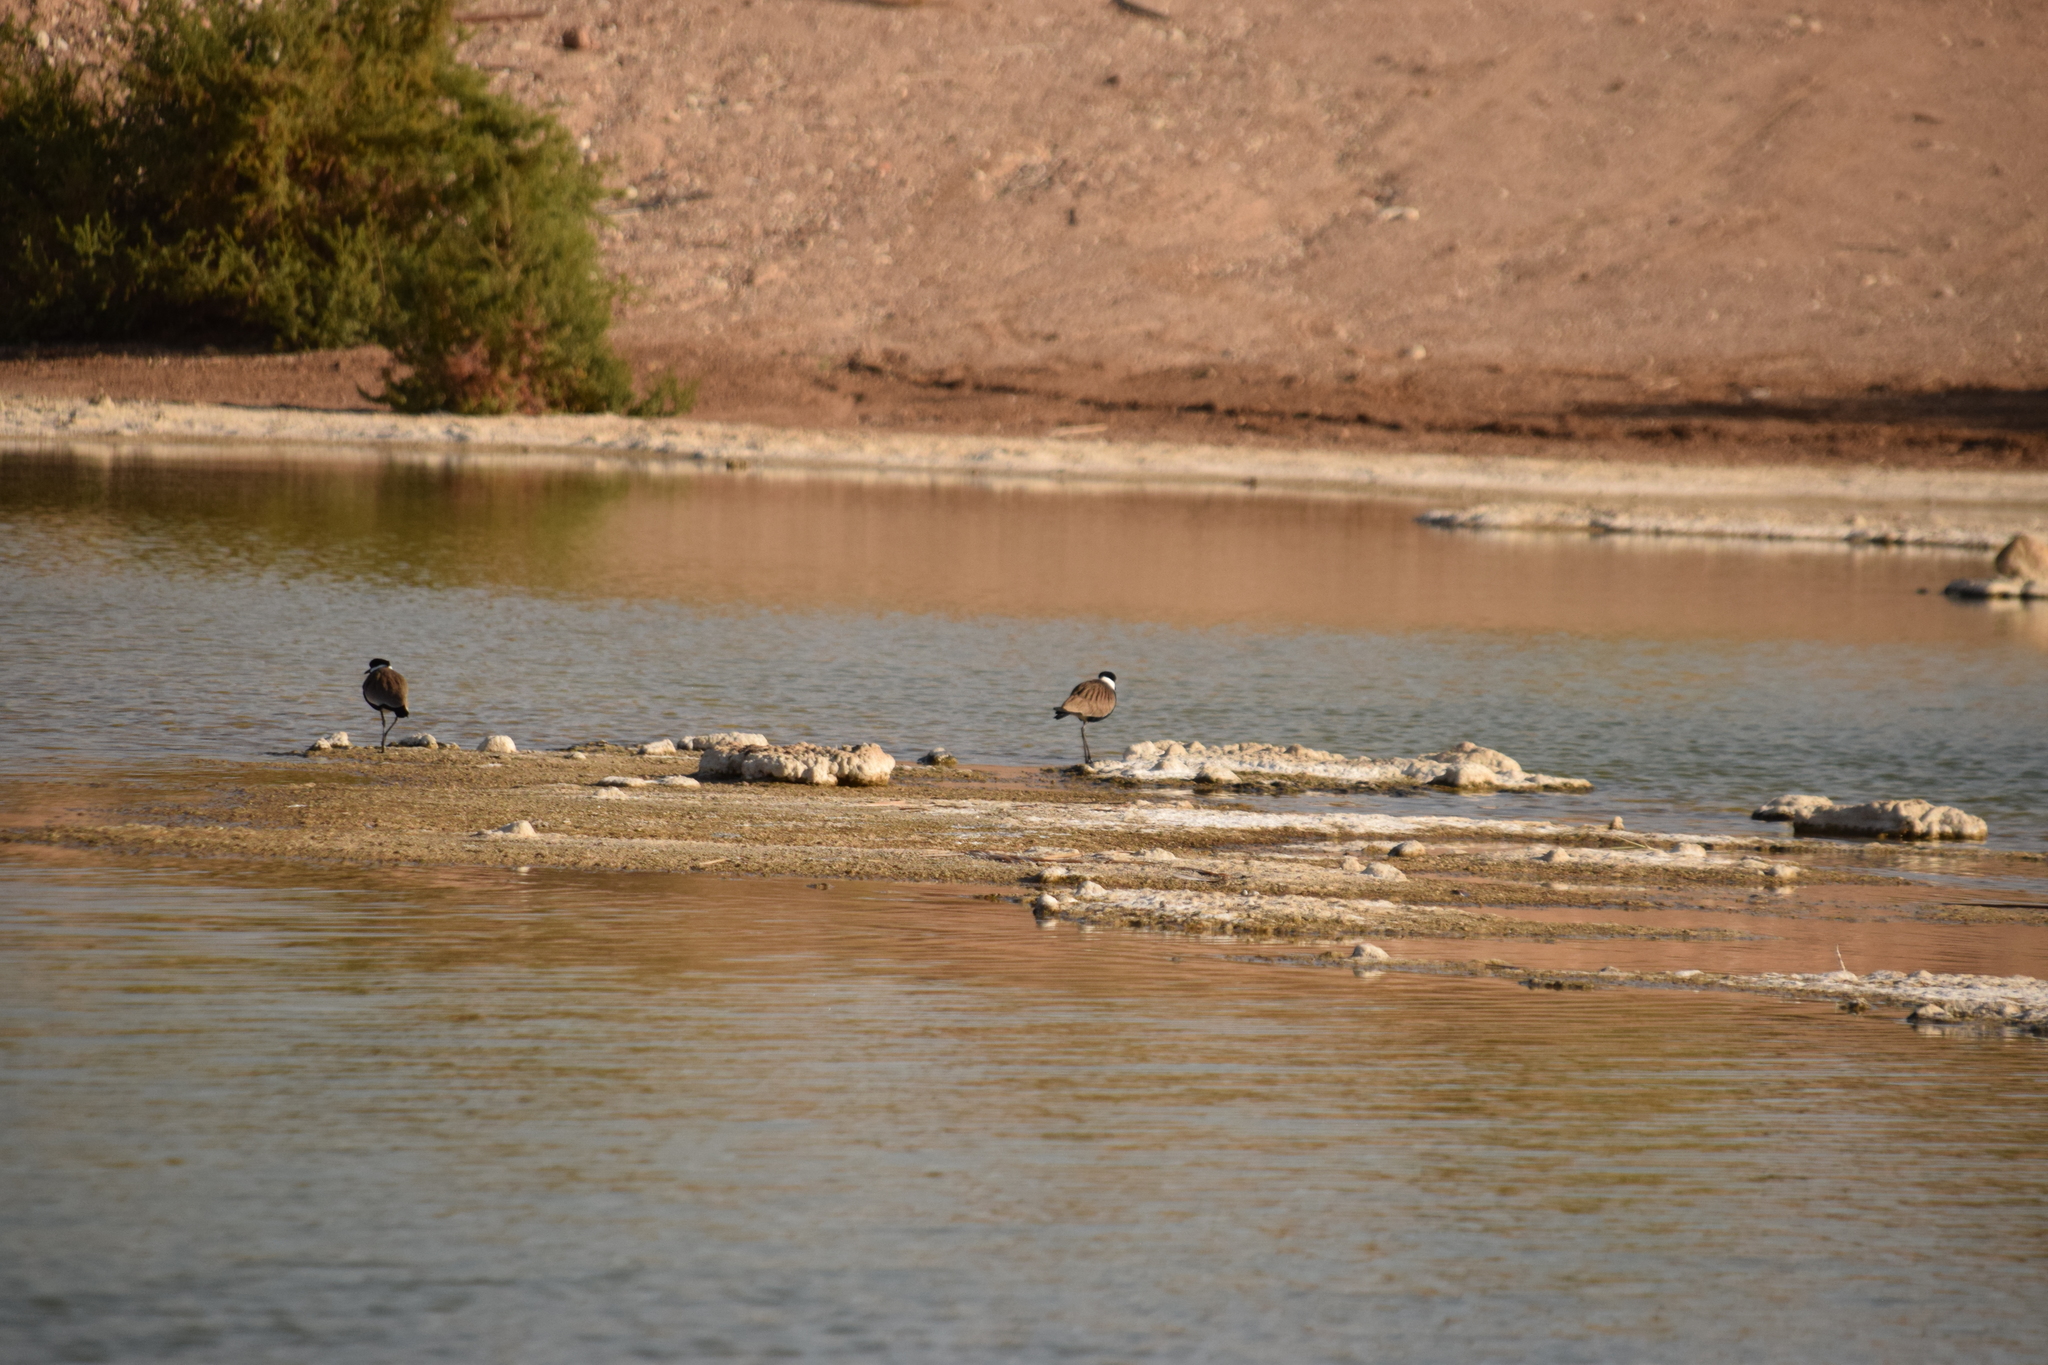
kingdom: Animalia
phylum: Chordata
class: Aves
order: Charadriiformes
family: Charadriidae
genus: Vanellus
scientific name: Vanellus spinosus
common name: Spur-winged lapwing
